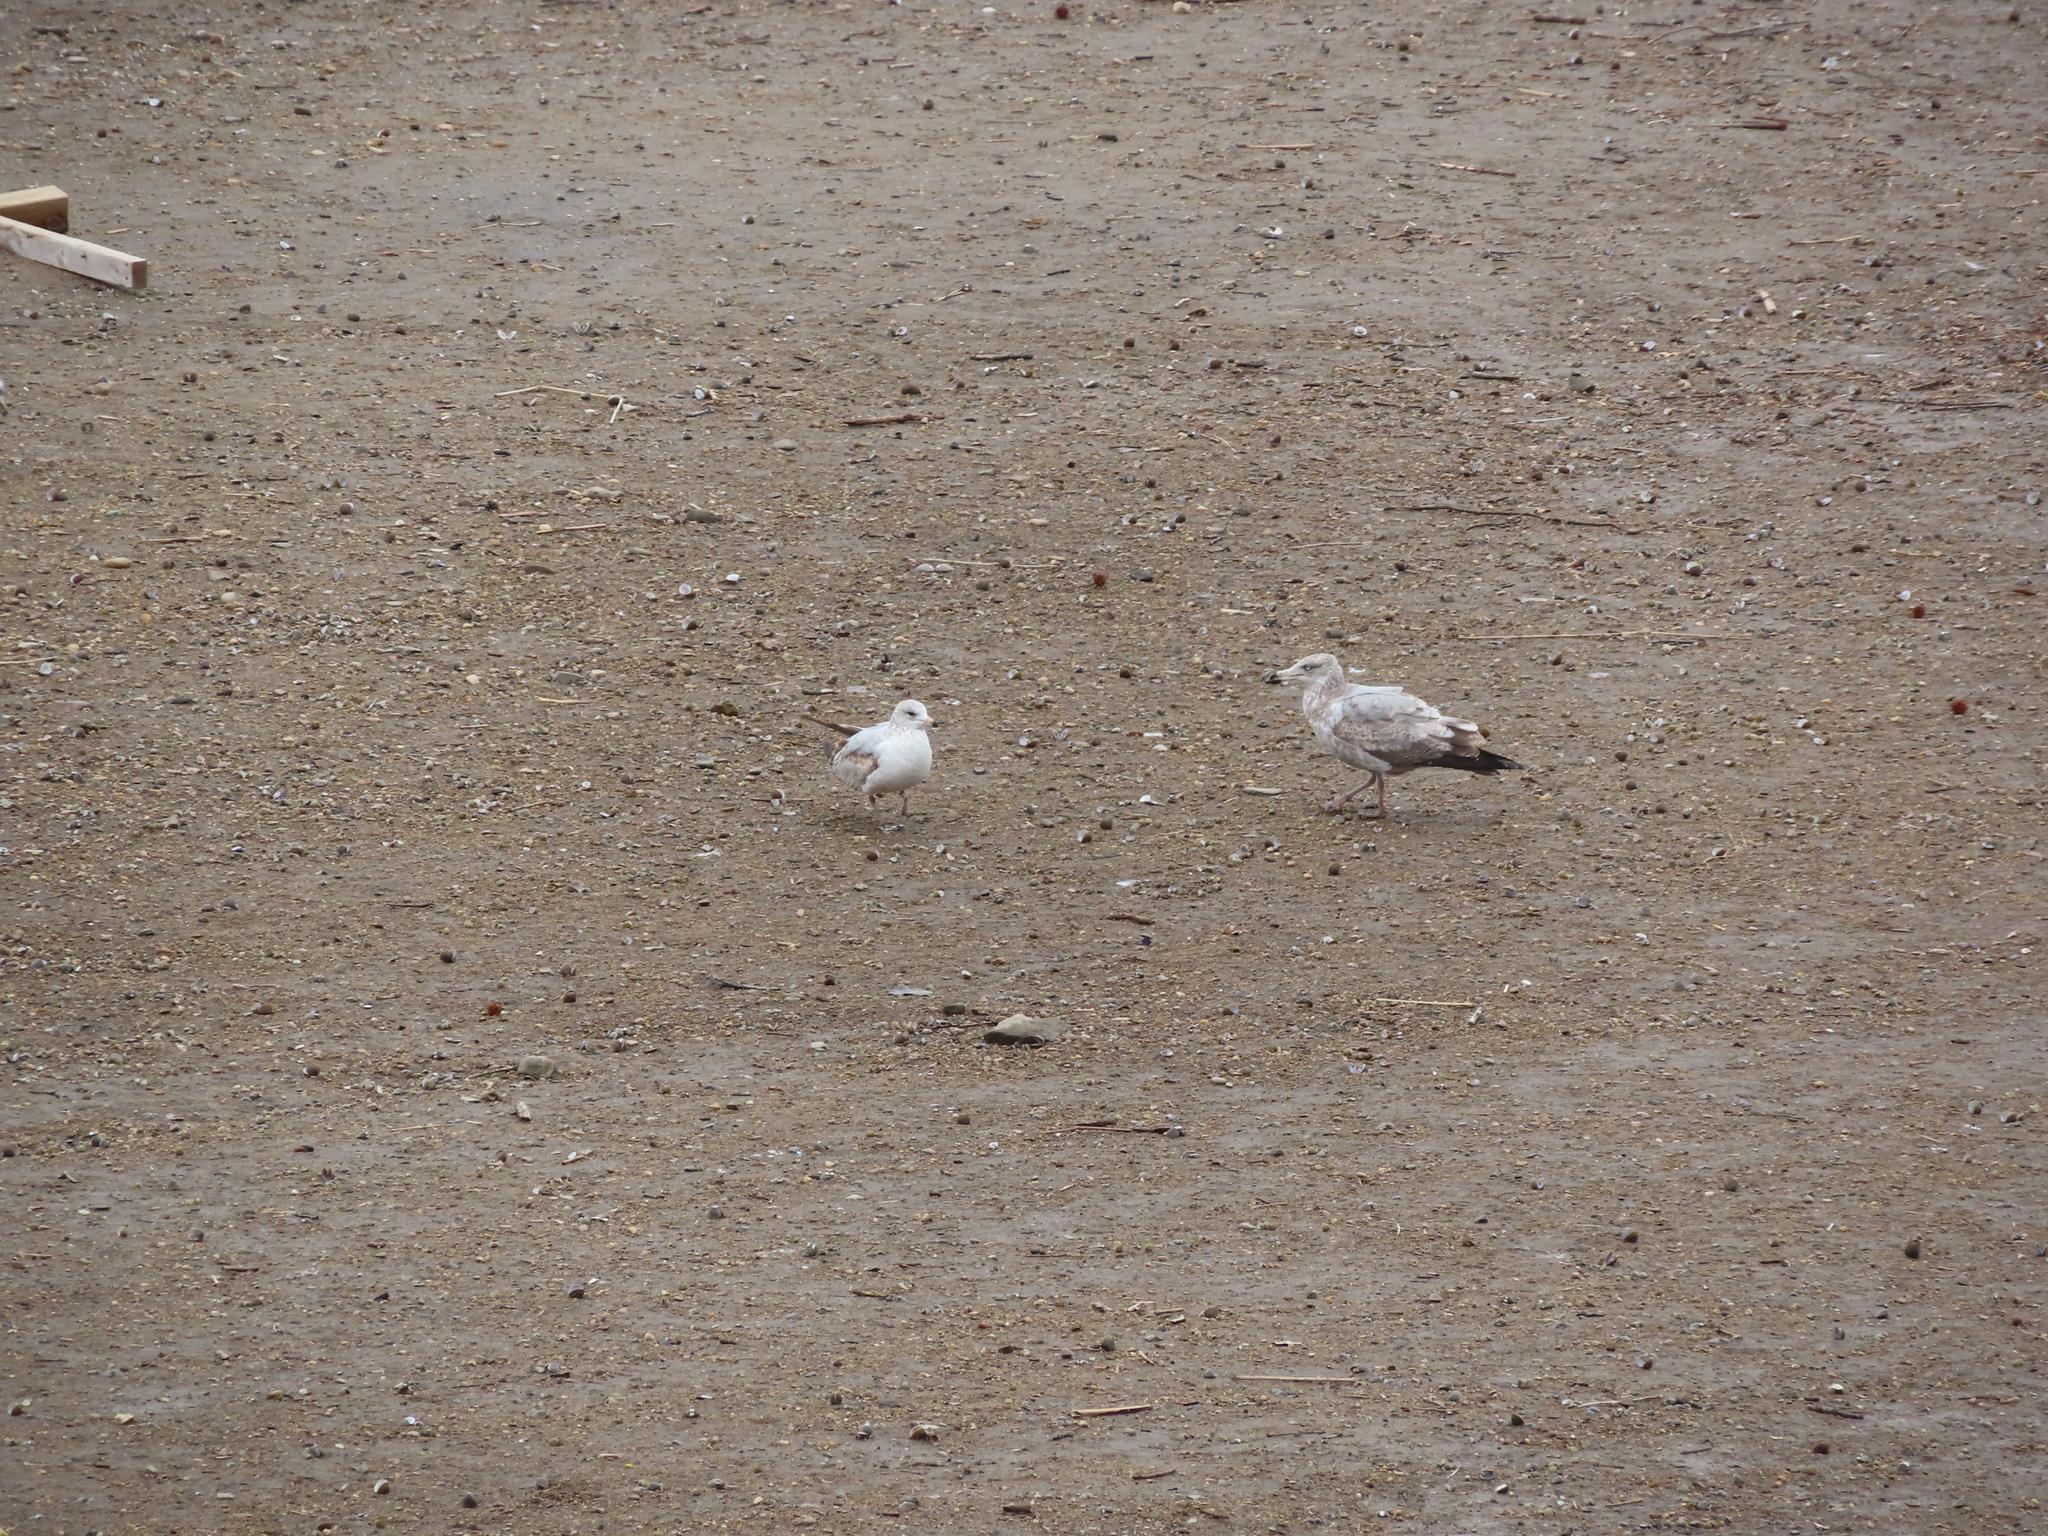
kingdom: Animalia
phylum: Chordata
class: Aves
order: Charadriiformes
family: Laridae
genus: Larus
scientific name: Larus delawarensis
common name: Ring-billed gull
